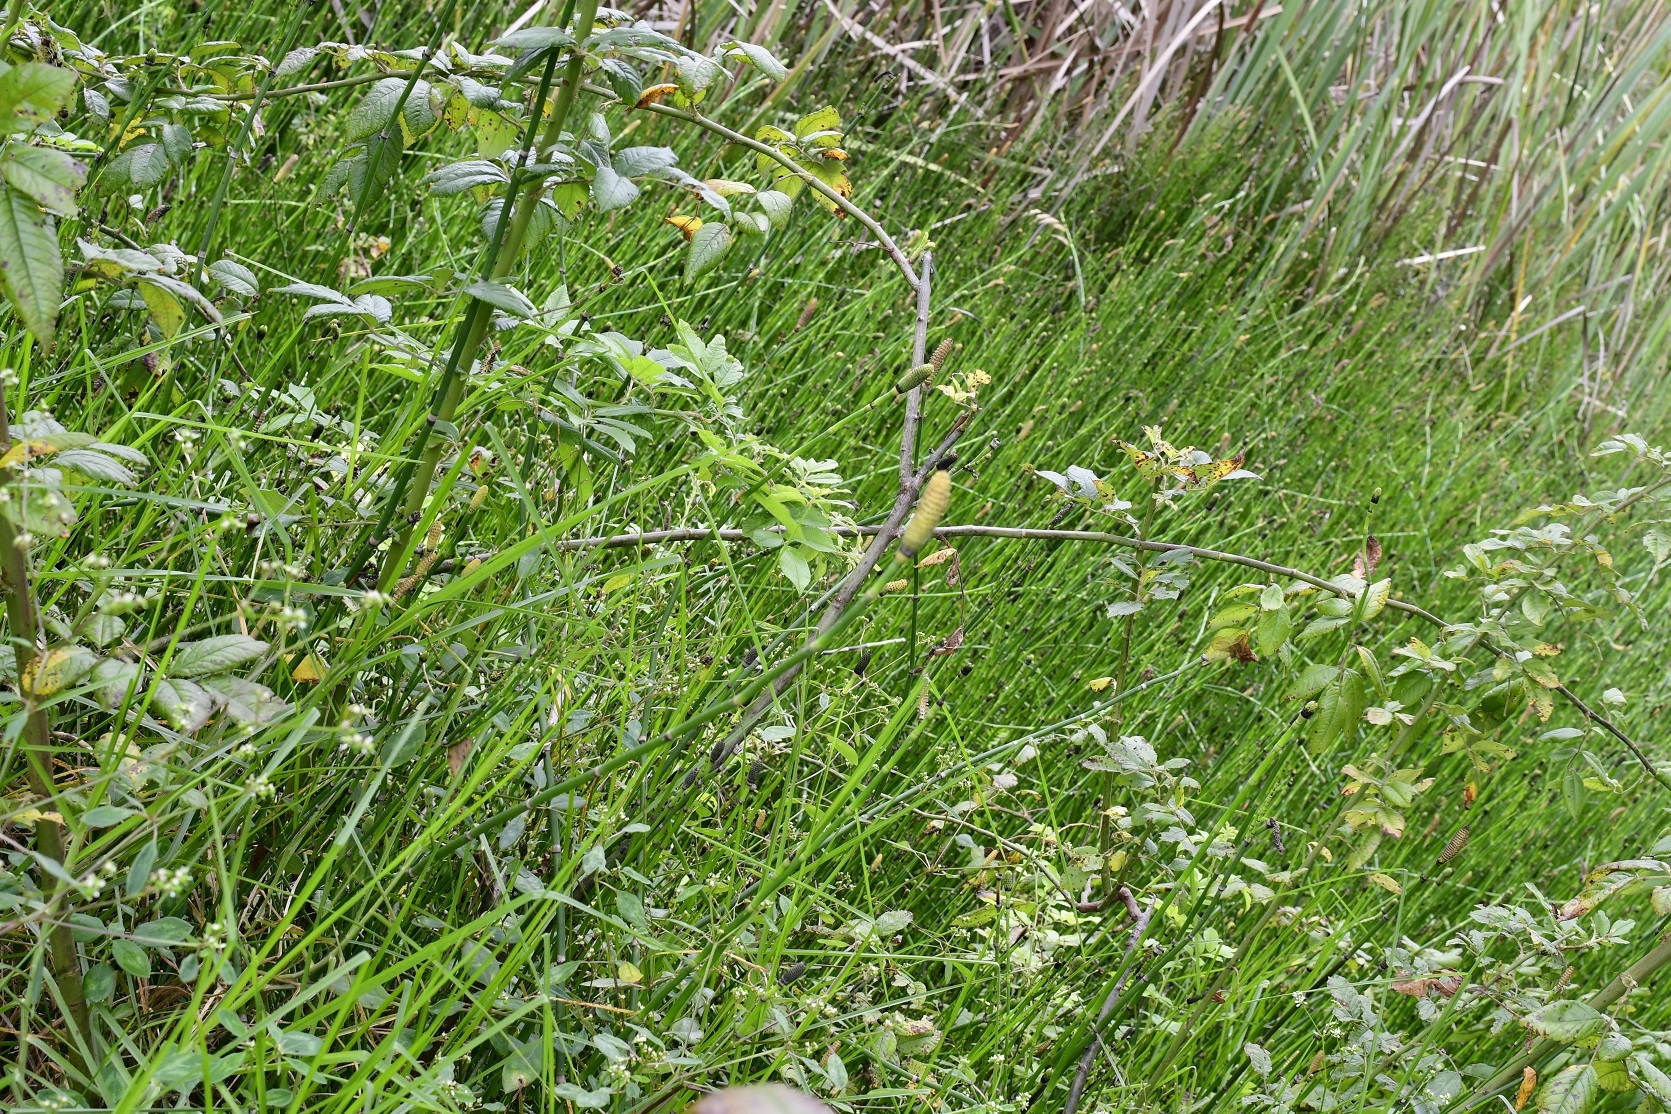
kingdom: Plantae
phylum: Tracheophyta
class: Polypodiopsida
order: Equisetales
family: Equisetaceae
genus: Equisetum
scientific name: Equisetum praealtum
